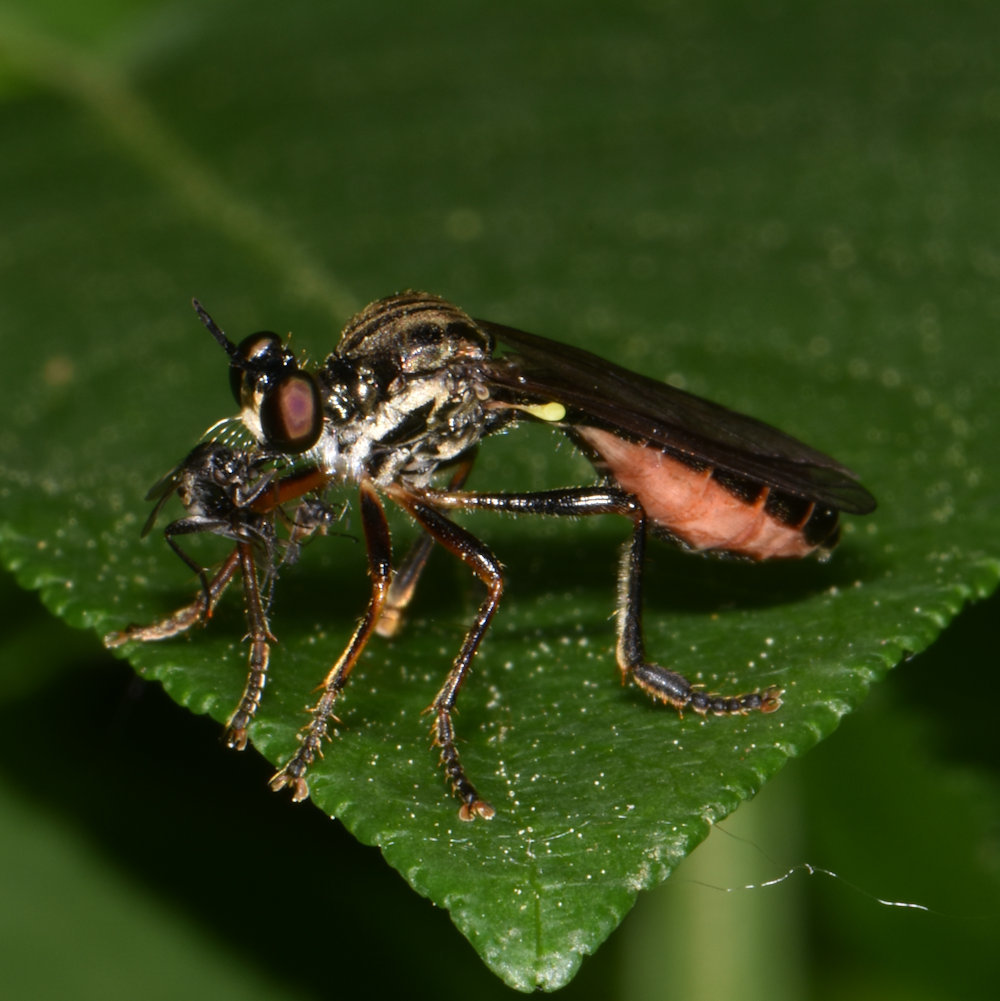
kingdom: Animalia
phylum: Arthropoda
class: Insecta
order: Diptera
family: Asilidae
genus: Dioctria
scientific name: Dioctria hyalipennis
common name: Stripe-legged robberfly
